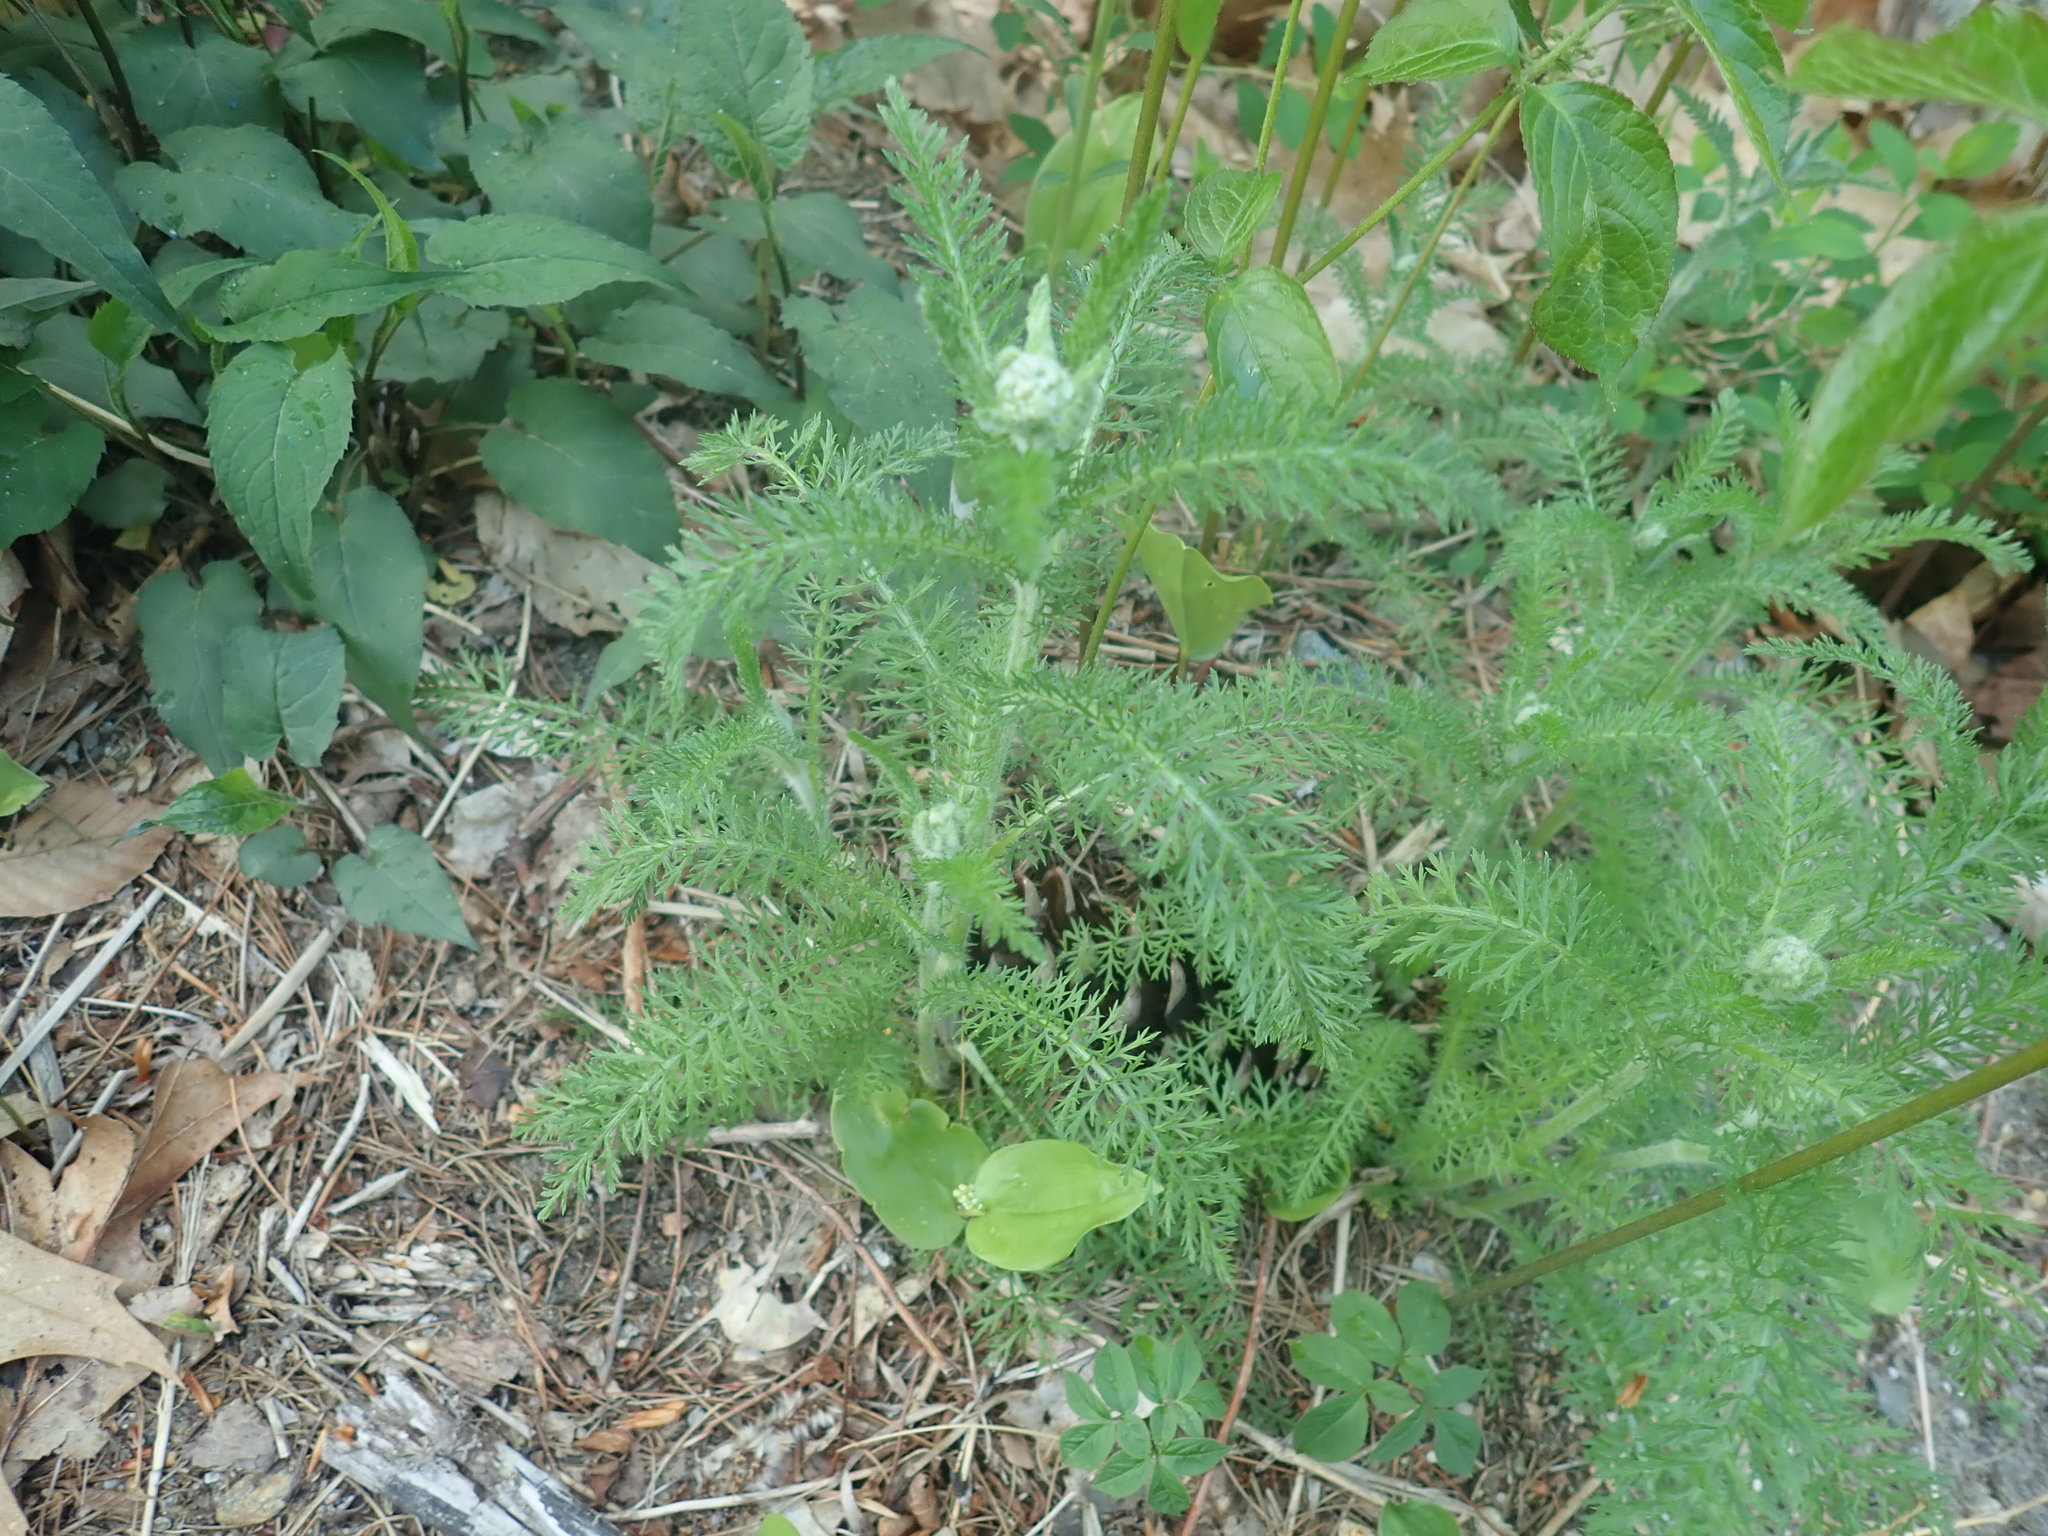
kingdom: Plantae
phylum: Tracheophyta
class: Magnoliopsida
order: Asterales
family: Asteraceae
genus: Achillea
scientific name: Achillea millefolium
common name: Yarrow
